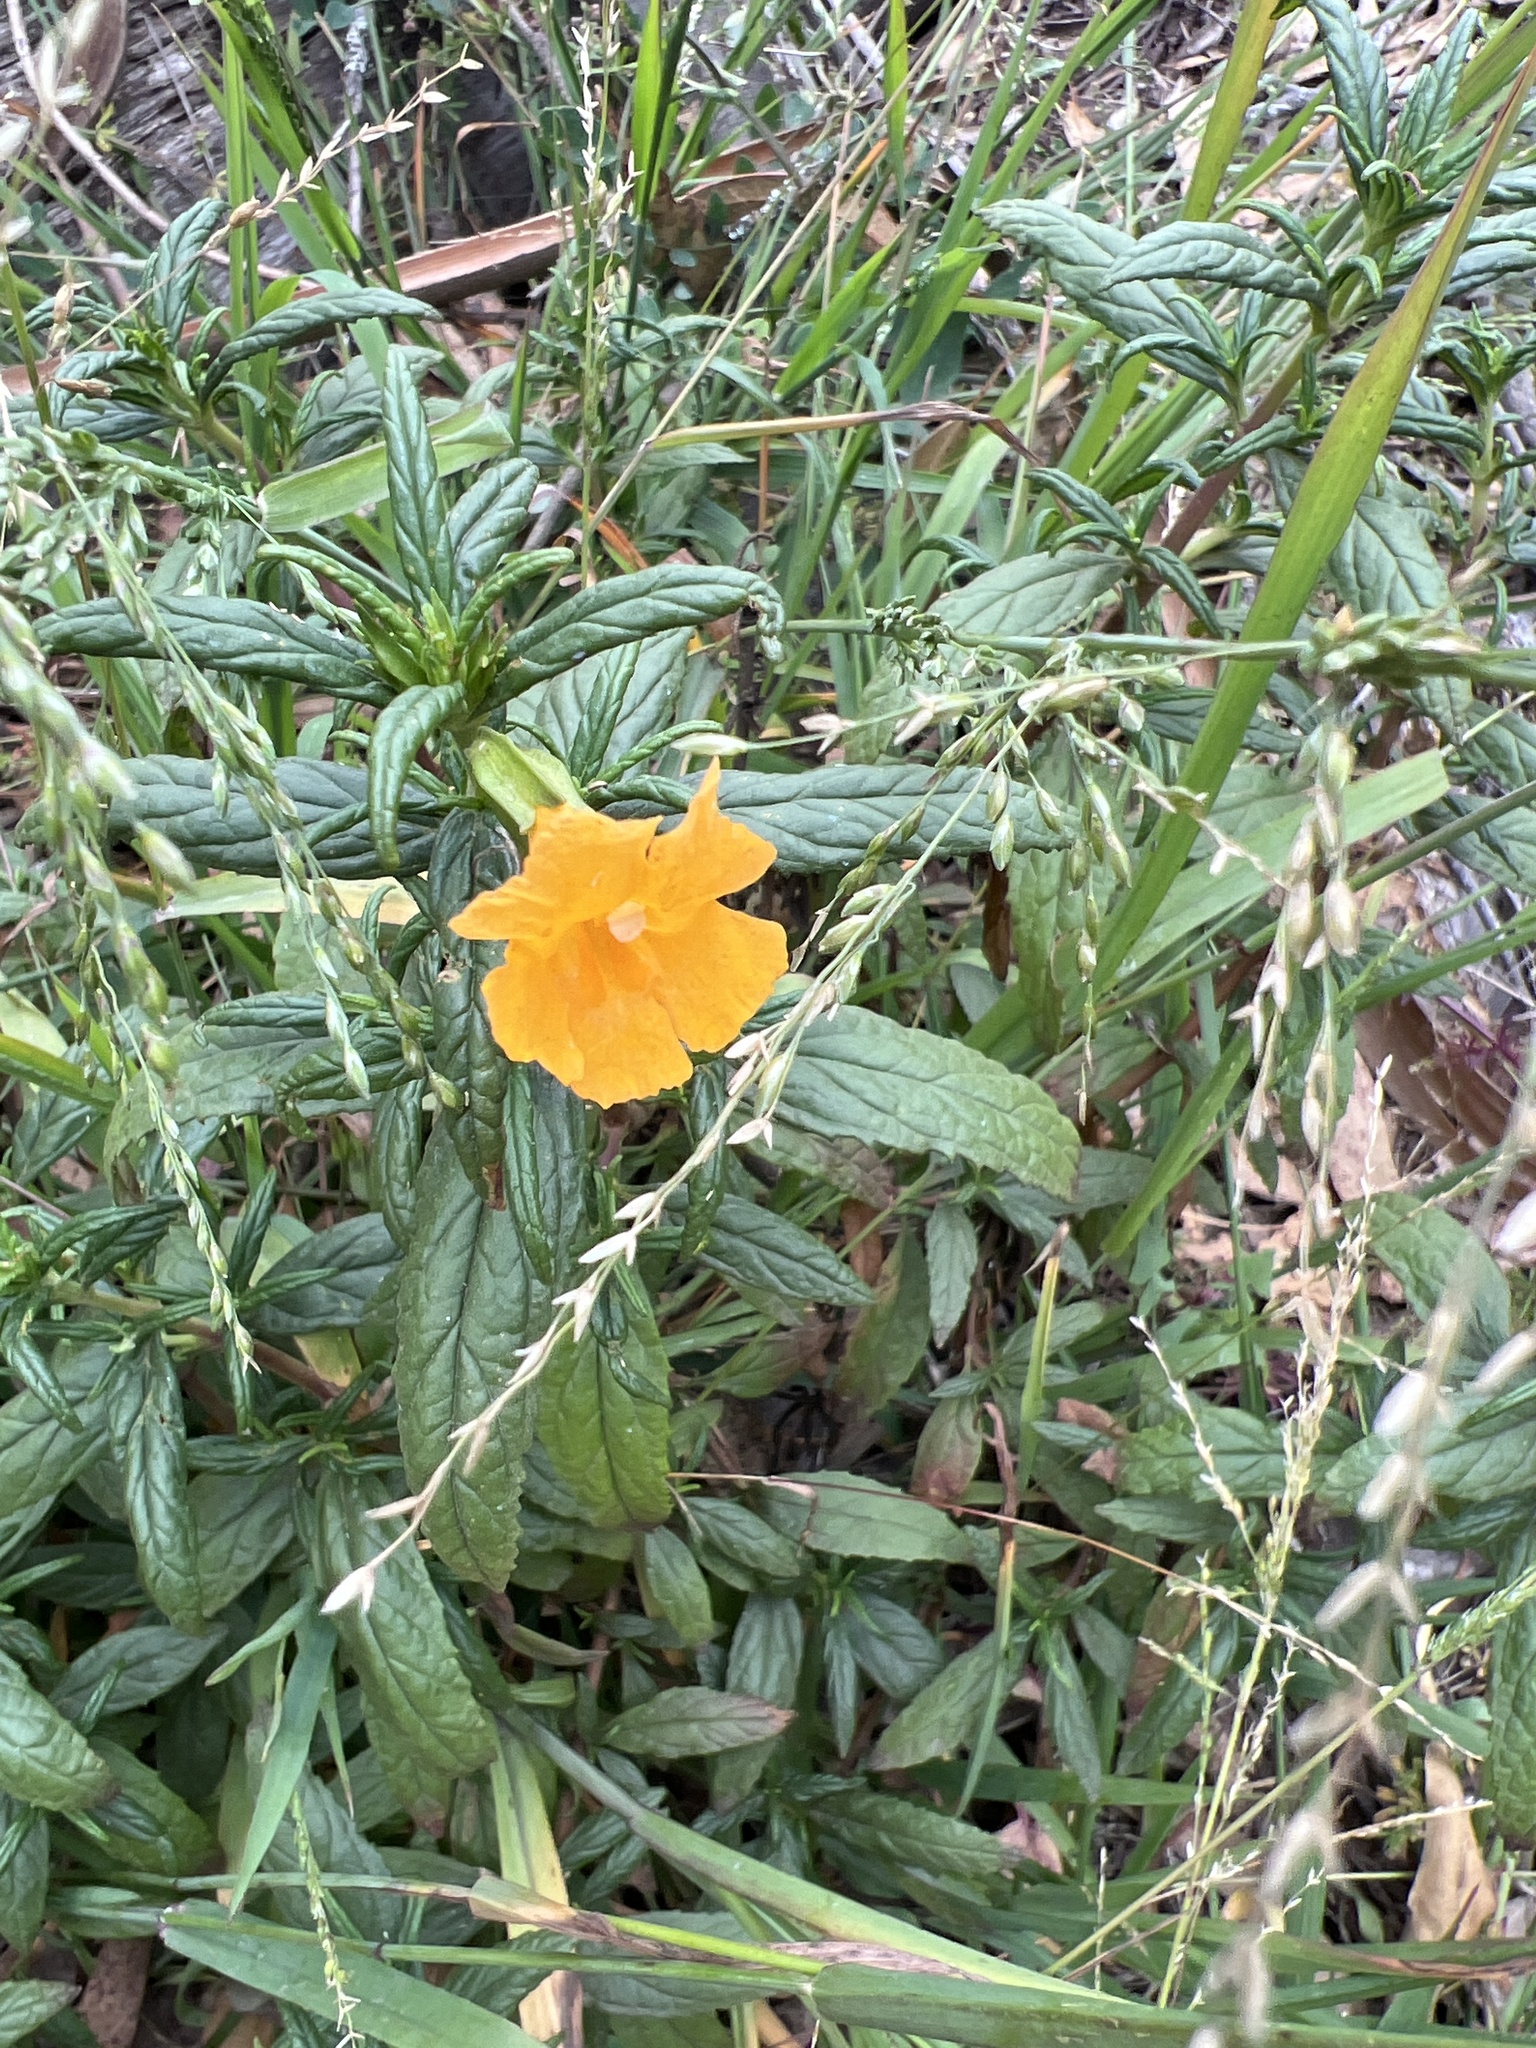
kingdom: Plantae
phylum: Tracheophyta
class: Magnoliopsida
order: Lamiales
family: Phrymaceae
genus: Diplacus
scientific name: Diplacus aurantiacus
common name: Bush monkey-flower
